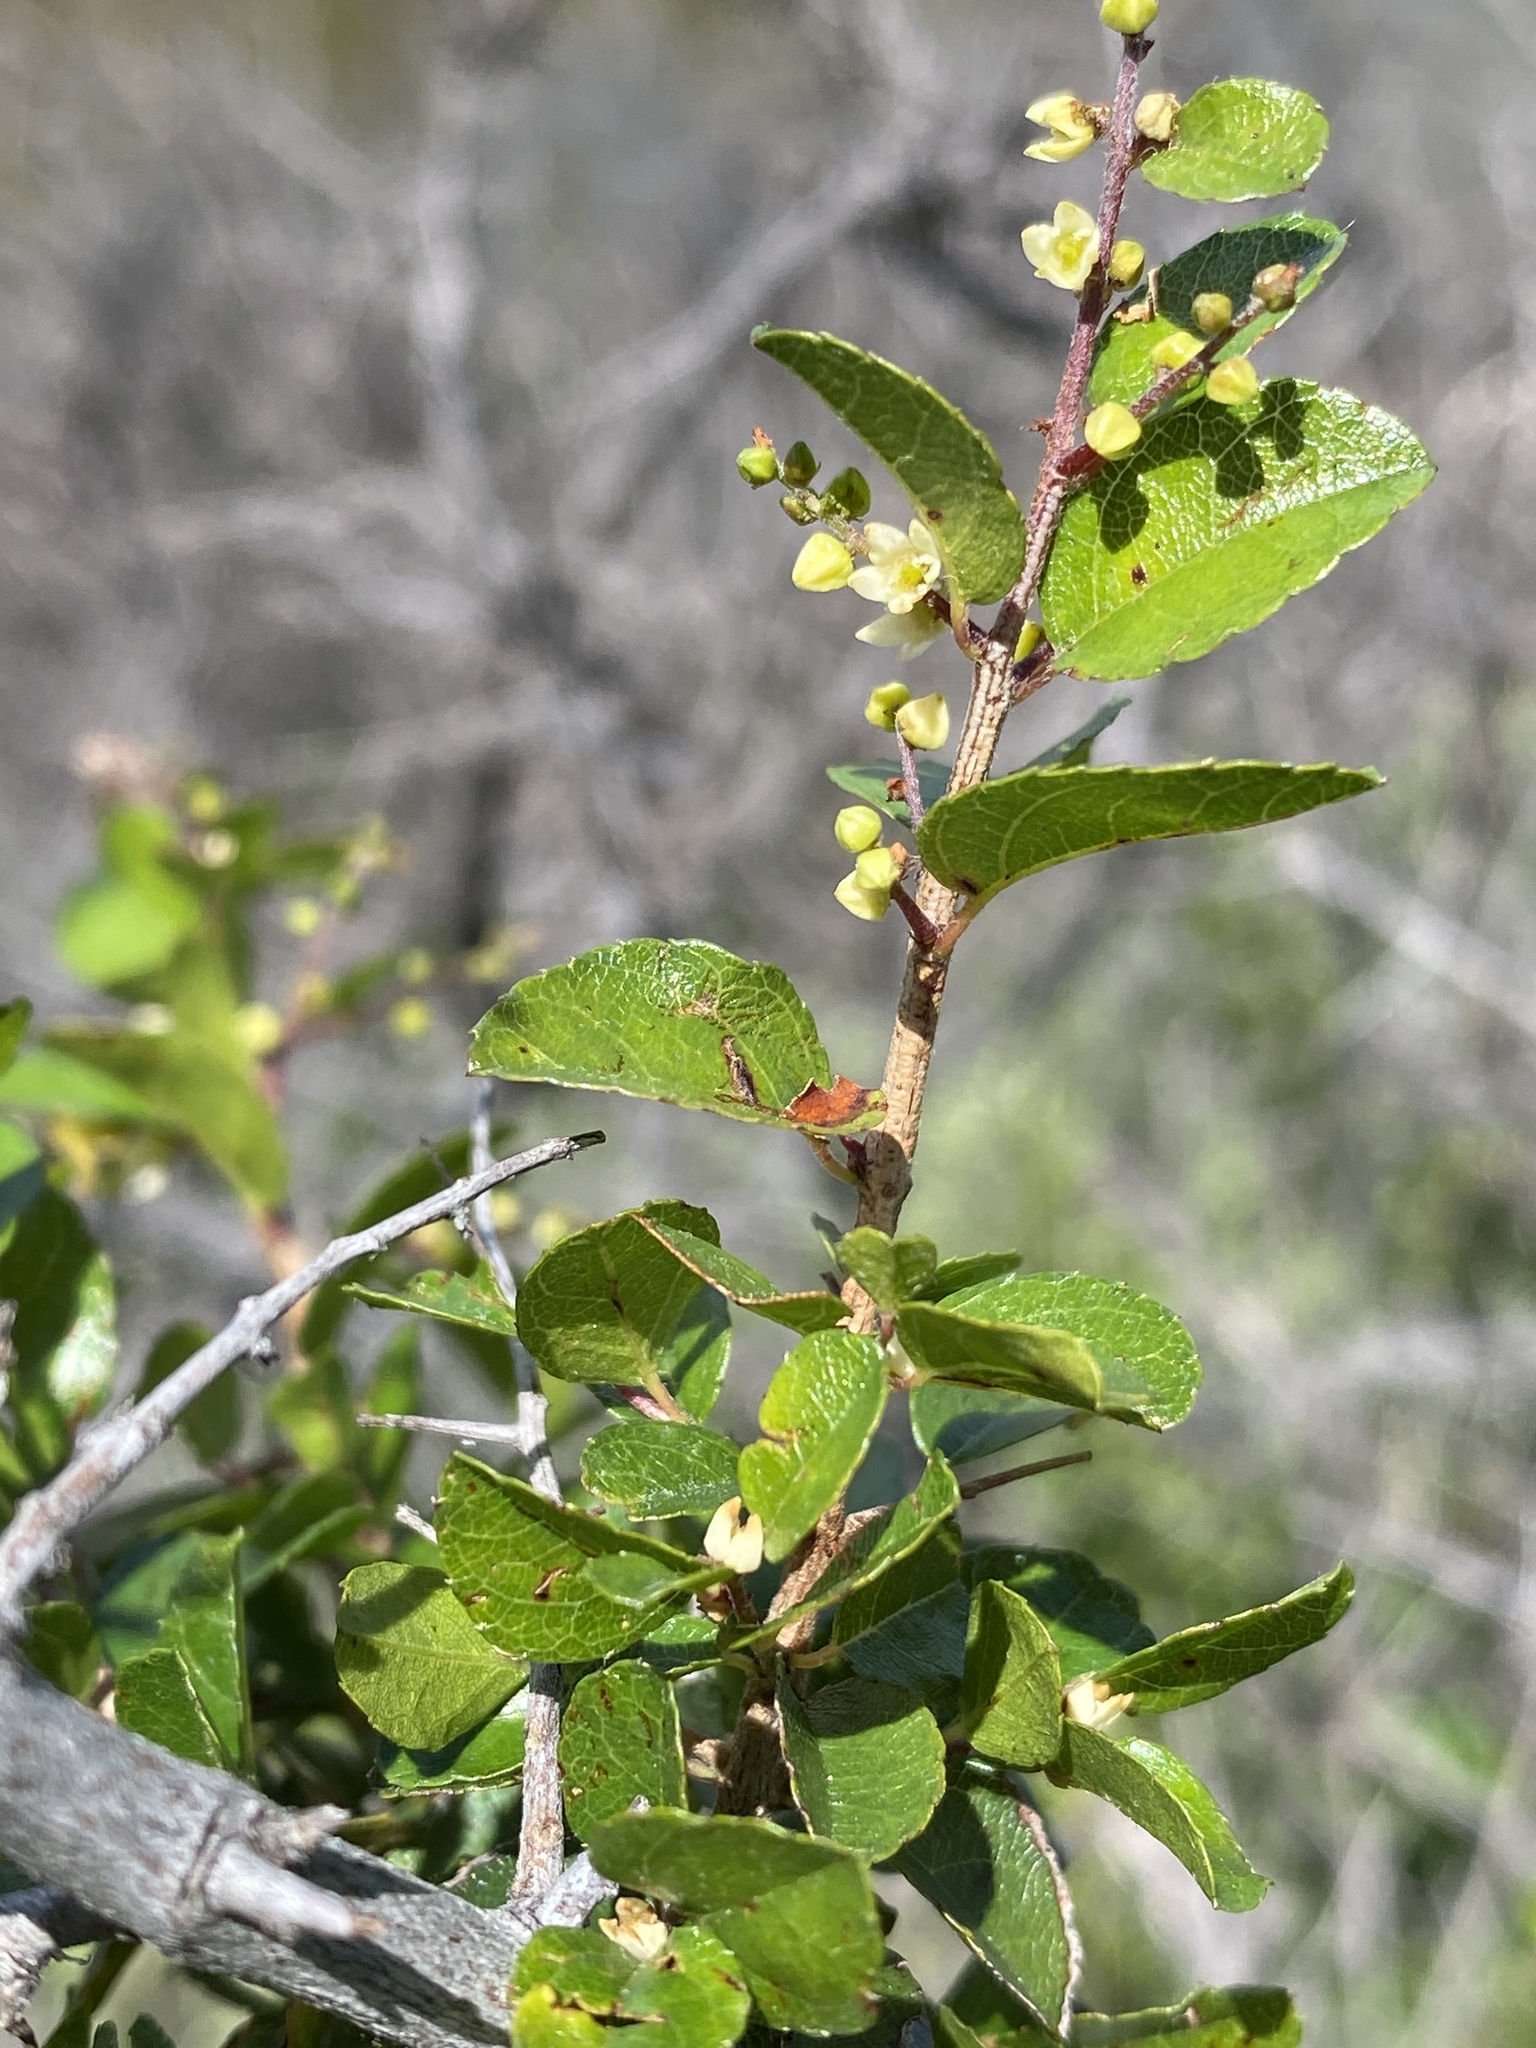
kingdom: Plantae
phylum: Tracheophyta
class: Magnoliopsida
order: Rosales
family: Rhamnaceae
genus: Sageretia
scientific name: Sageretia wrightii
